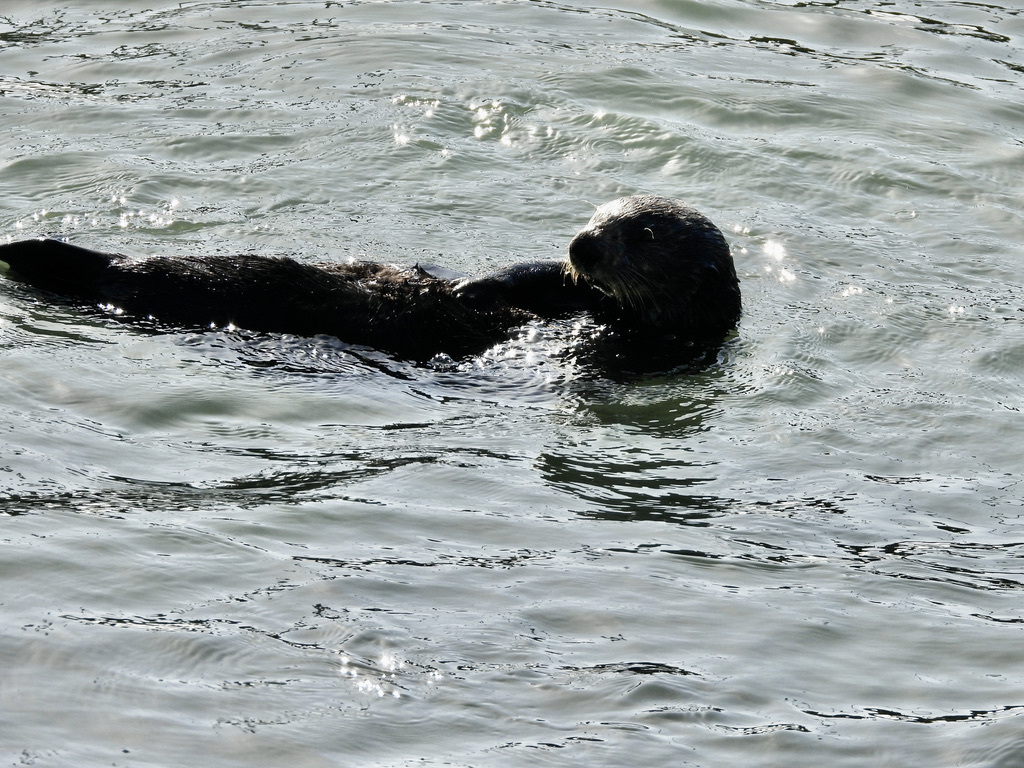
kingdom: Animalia
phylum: Chordata
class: Mammalia
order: Carnivora
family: Mustelidae
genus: Enhydra
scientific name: Enhydra lutris
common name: Sea otter
